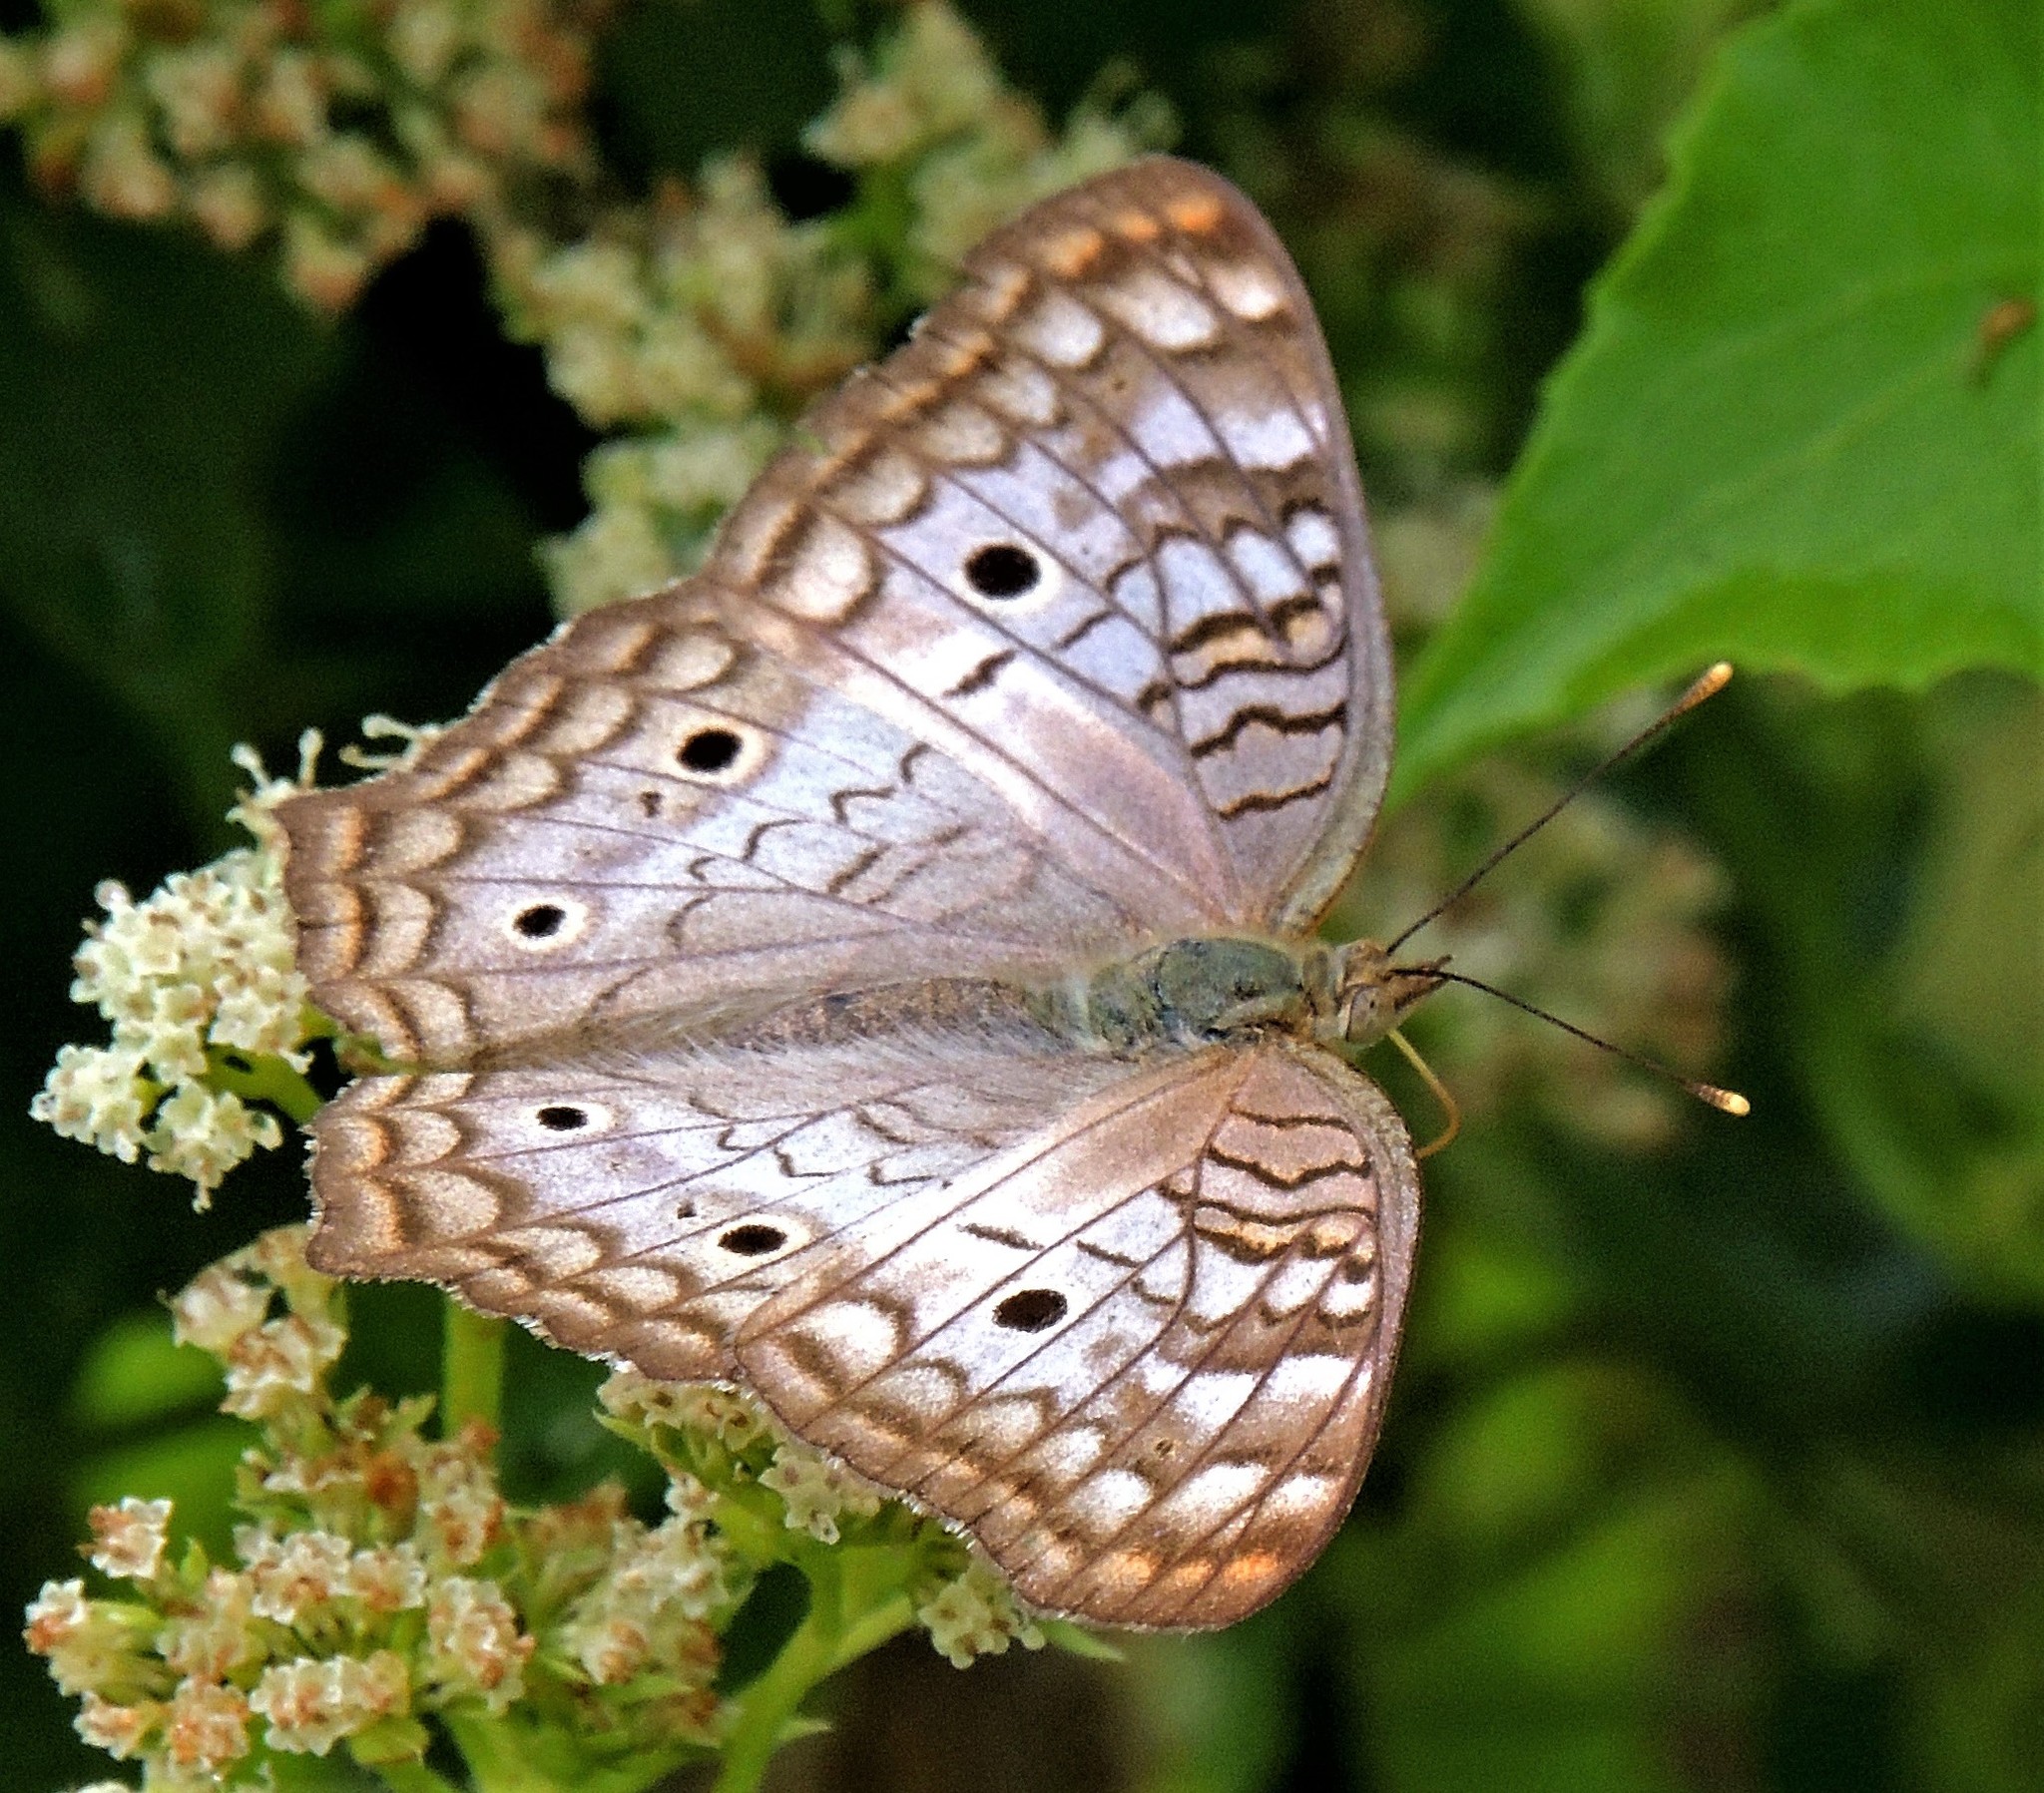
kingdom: Animalia
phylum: Arthropoda
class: Insecta
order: Lepidoptera
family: Nymphalidae
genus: Anartia
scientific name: Anartia jatrophae
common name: White peacock
